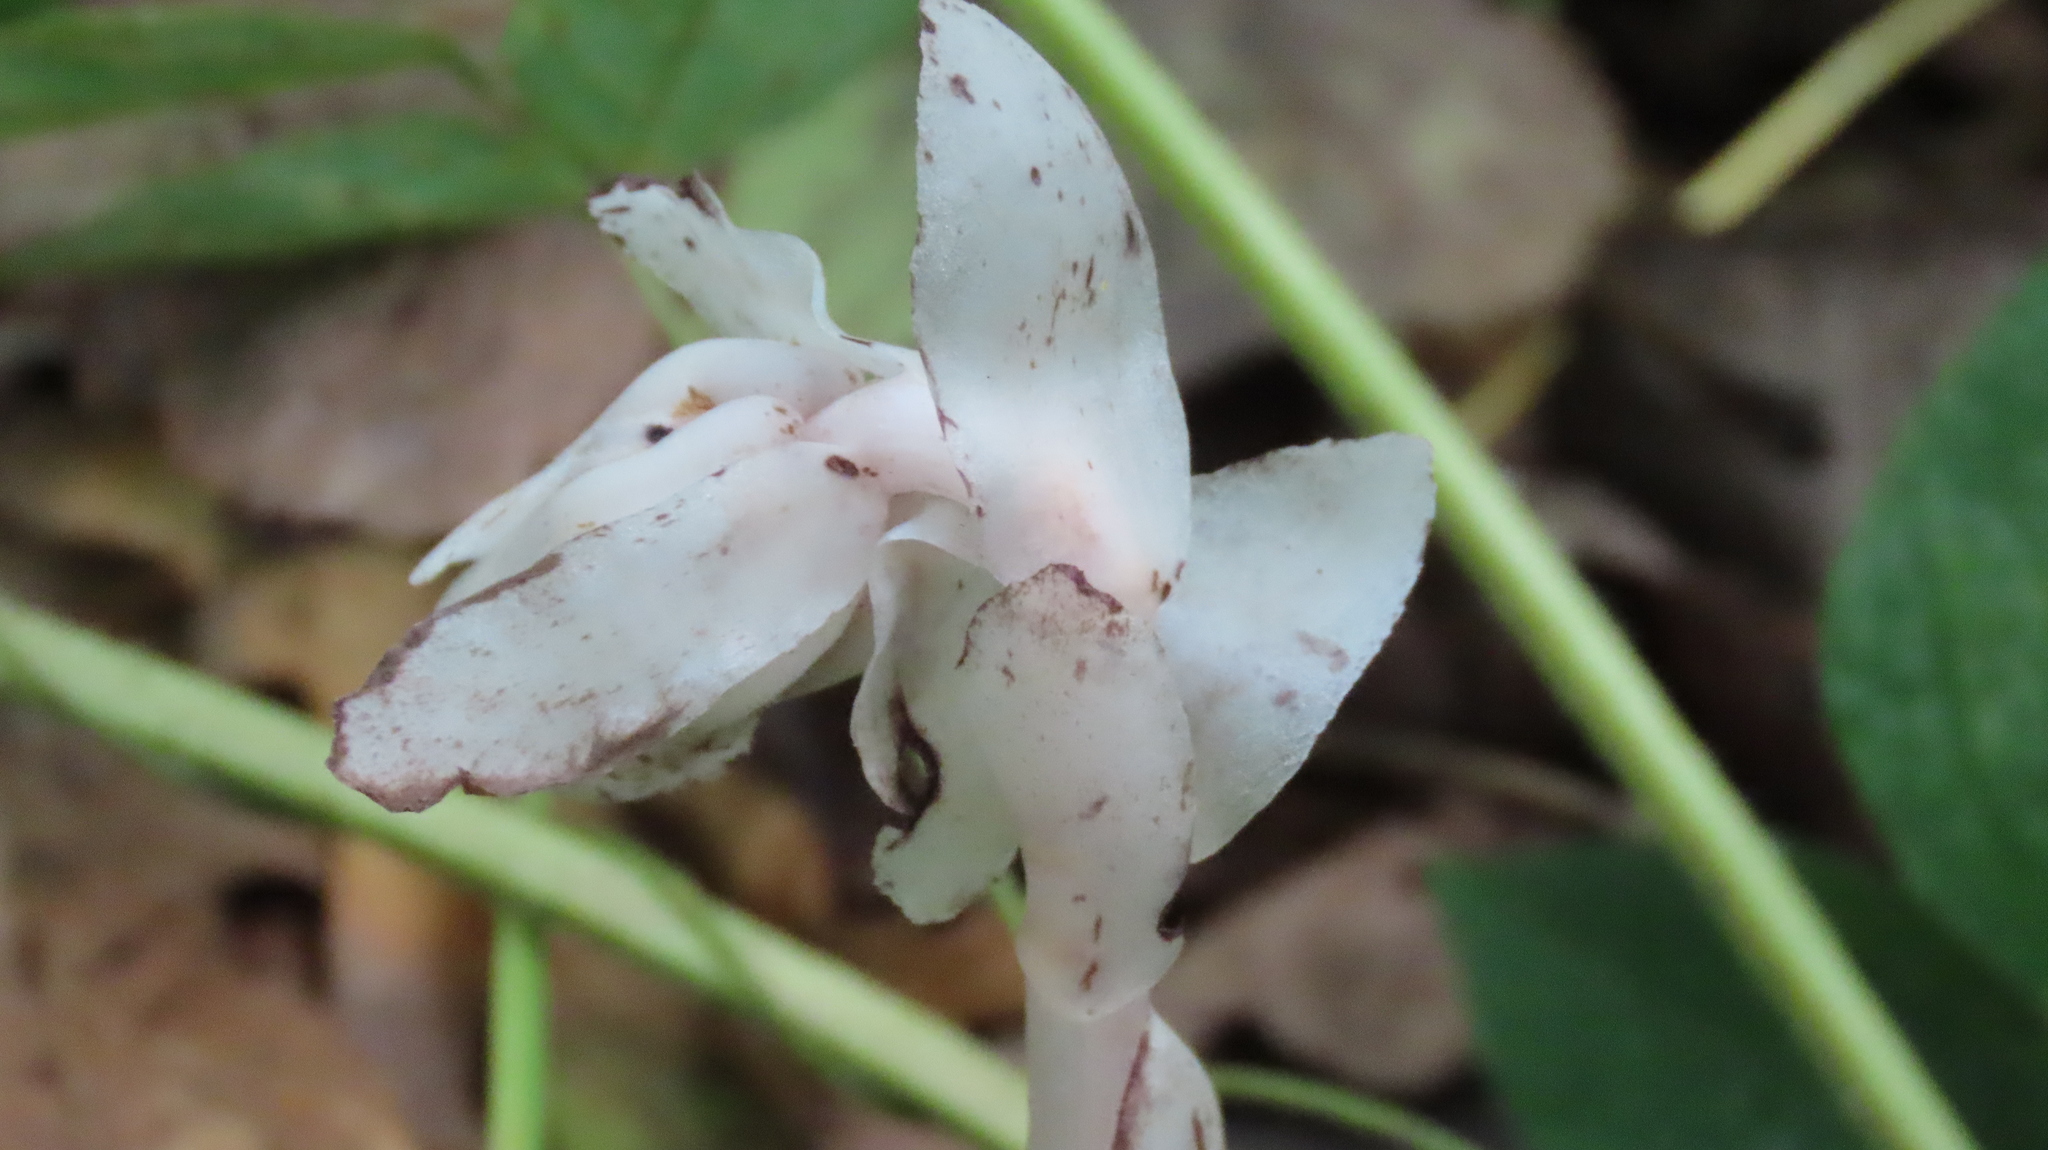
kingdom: Plantae
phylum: Tracheophyta
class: Magnoliopsida
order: Ericales
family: Ericaceae
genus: Monotropa
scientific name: Monotropa uniflora
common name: Convulsion root
